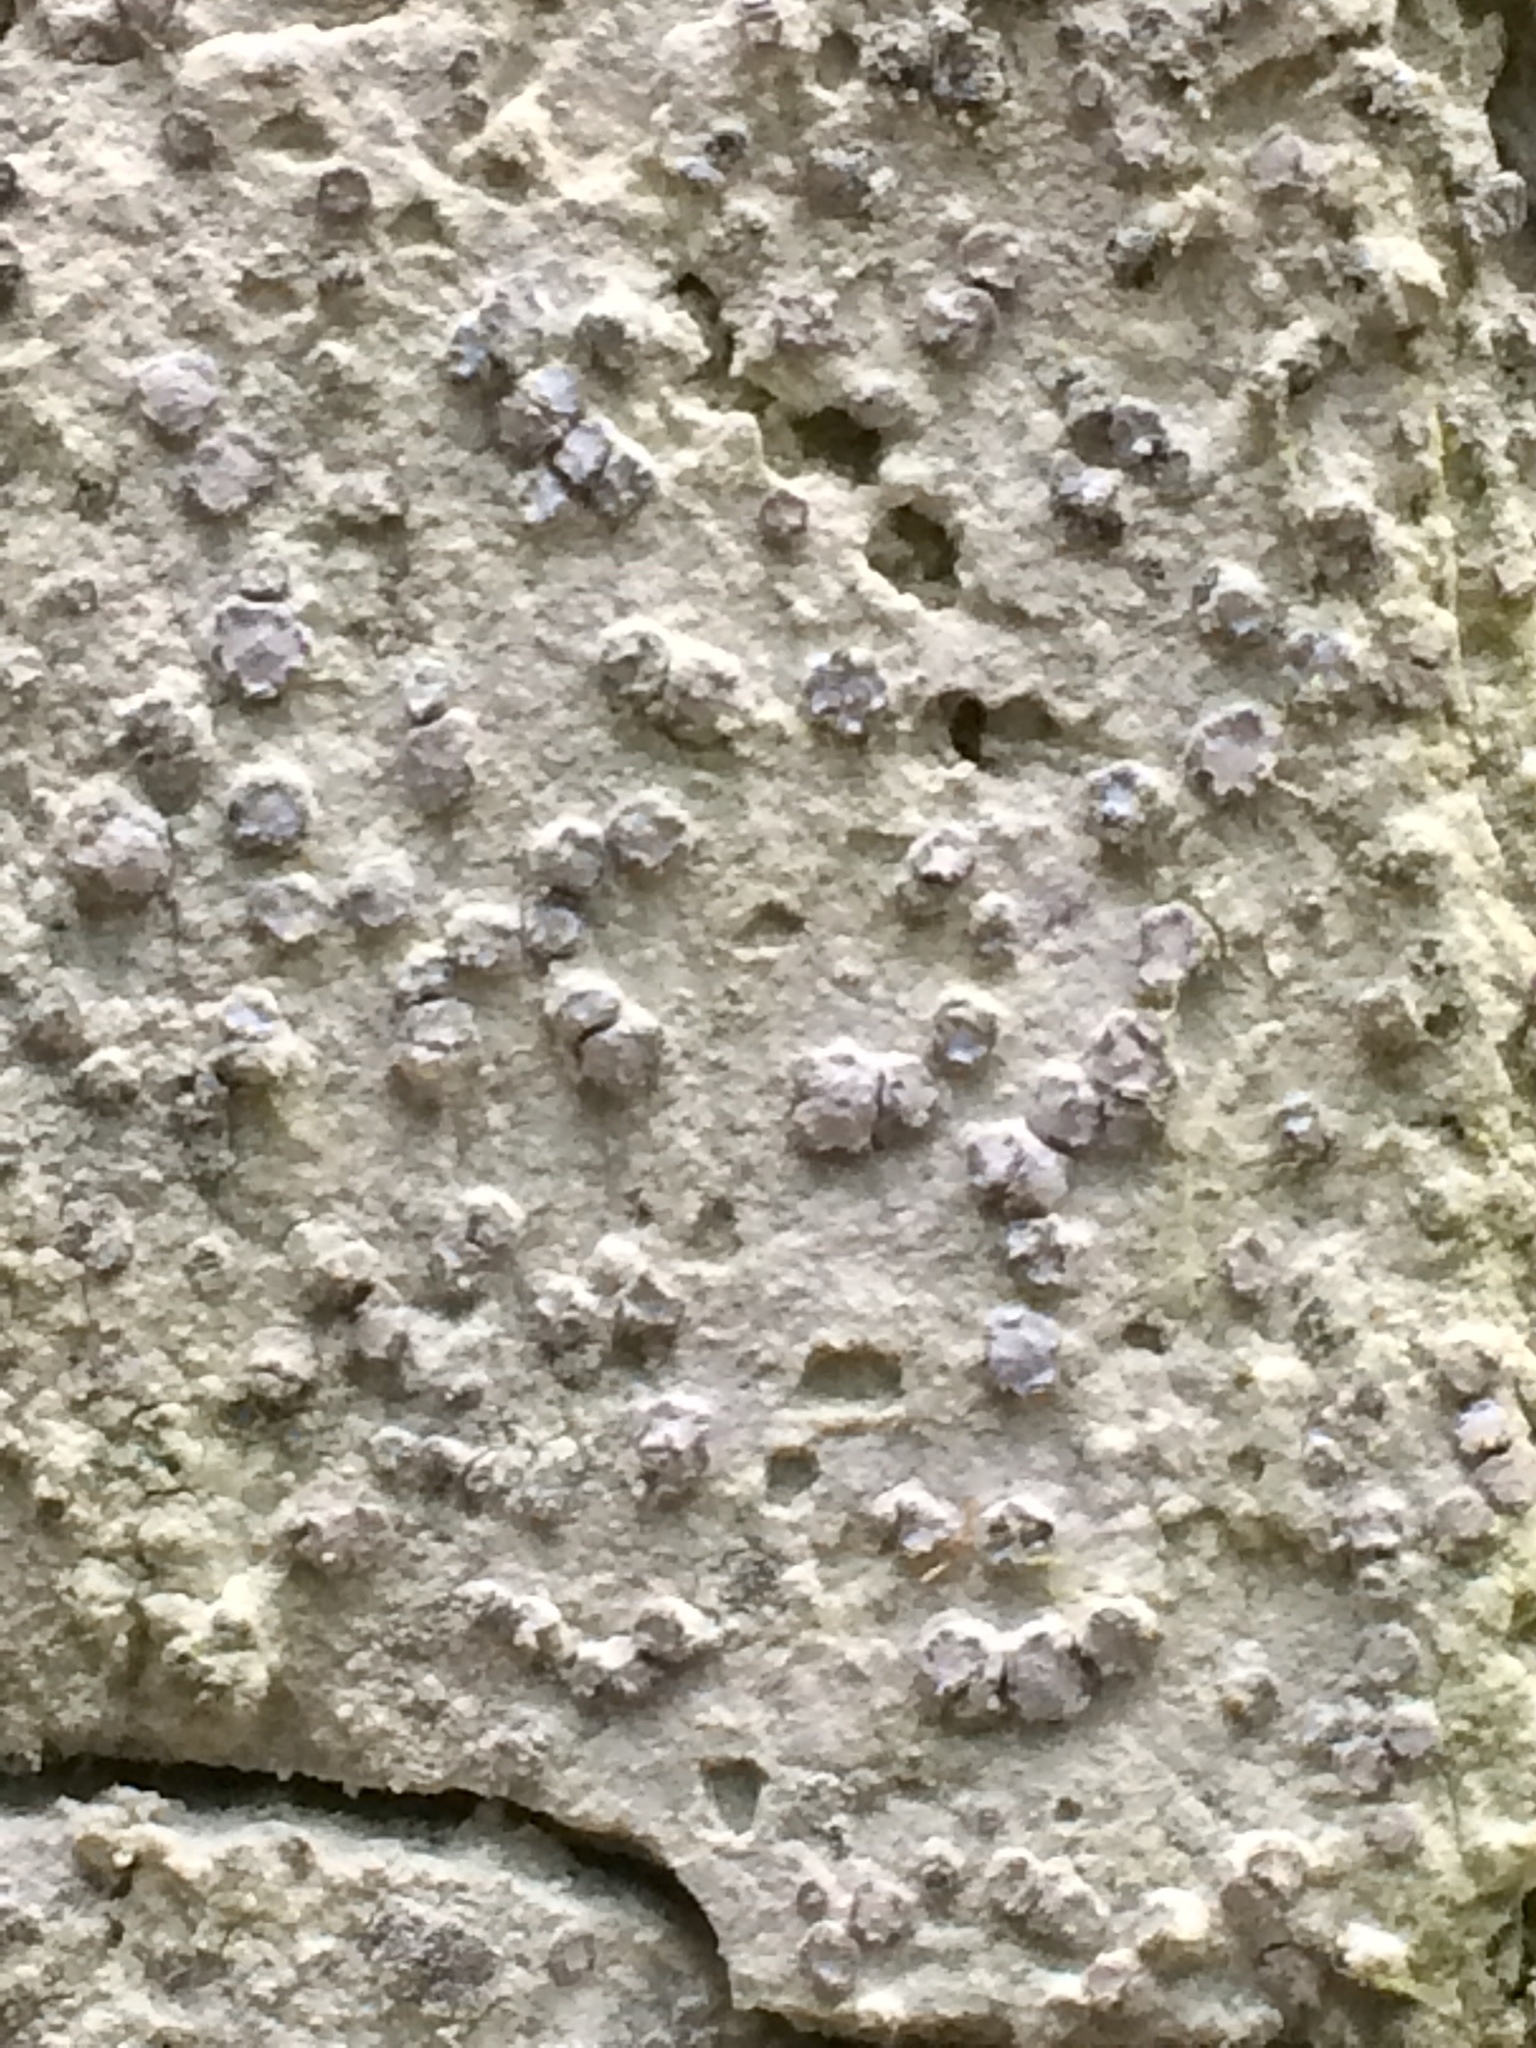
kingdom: Fungi
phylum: Ascomycota
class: Arthoniomycetes
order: Arthoniales
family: Roccellaceae
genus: Lecanactis
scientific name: Lecanactis subfarinosa
